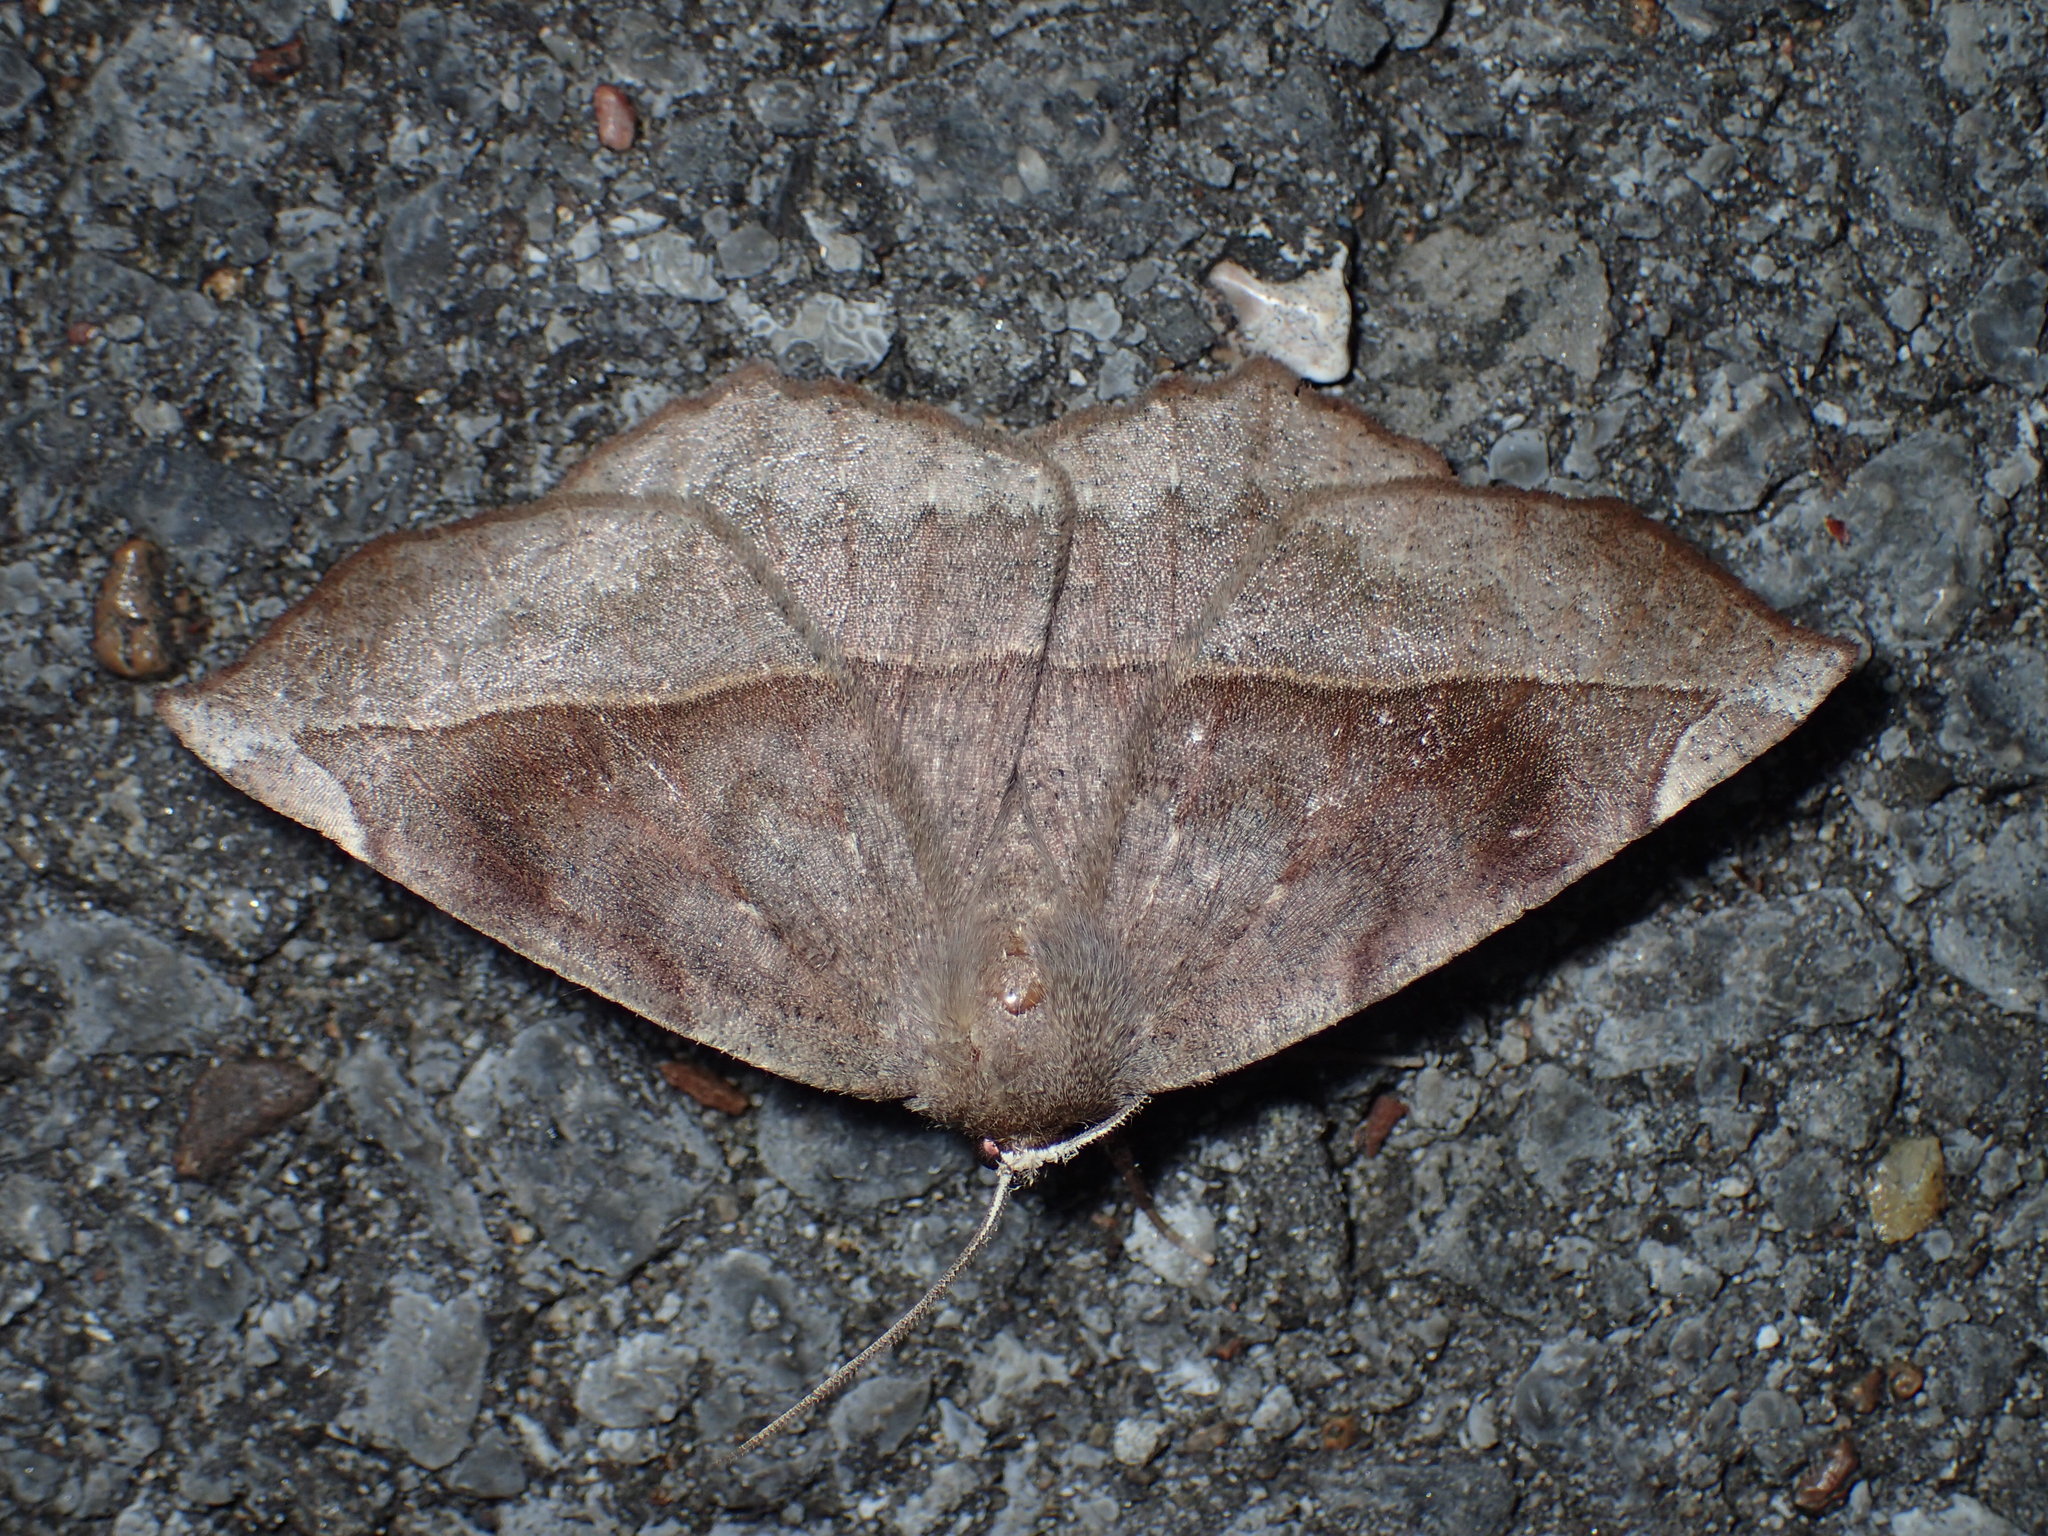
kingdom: Animalia
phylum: Arthropoda
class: Insecta
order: Lepidoptera
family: Geometridae
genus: Eutrapela
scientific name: Eutrapela clemataria
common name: Curved-toothed geometer
